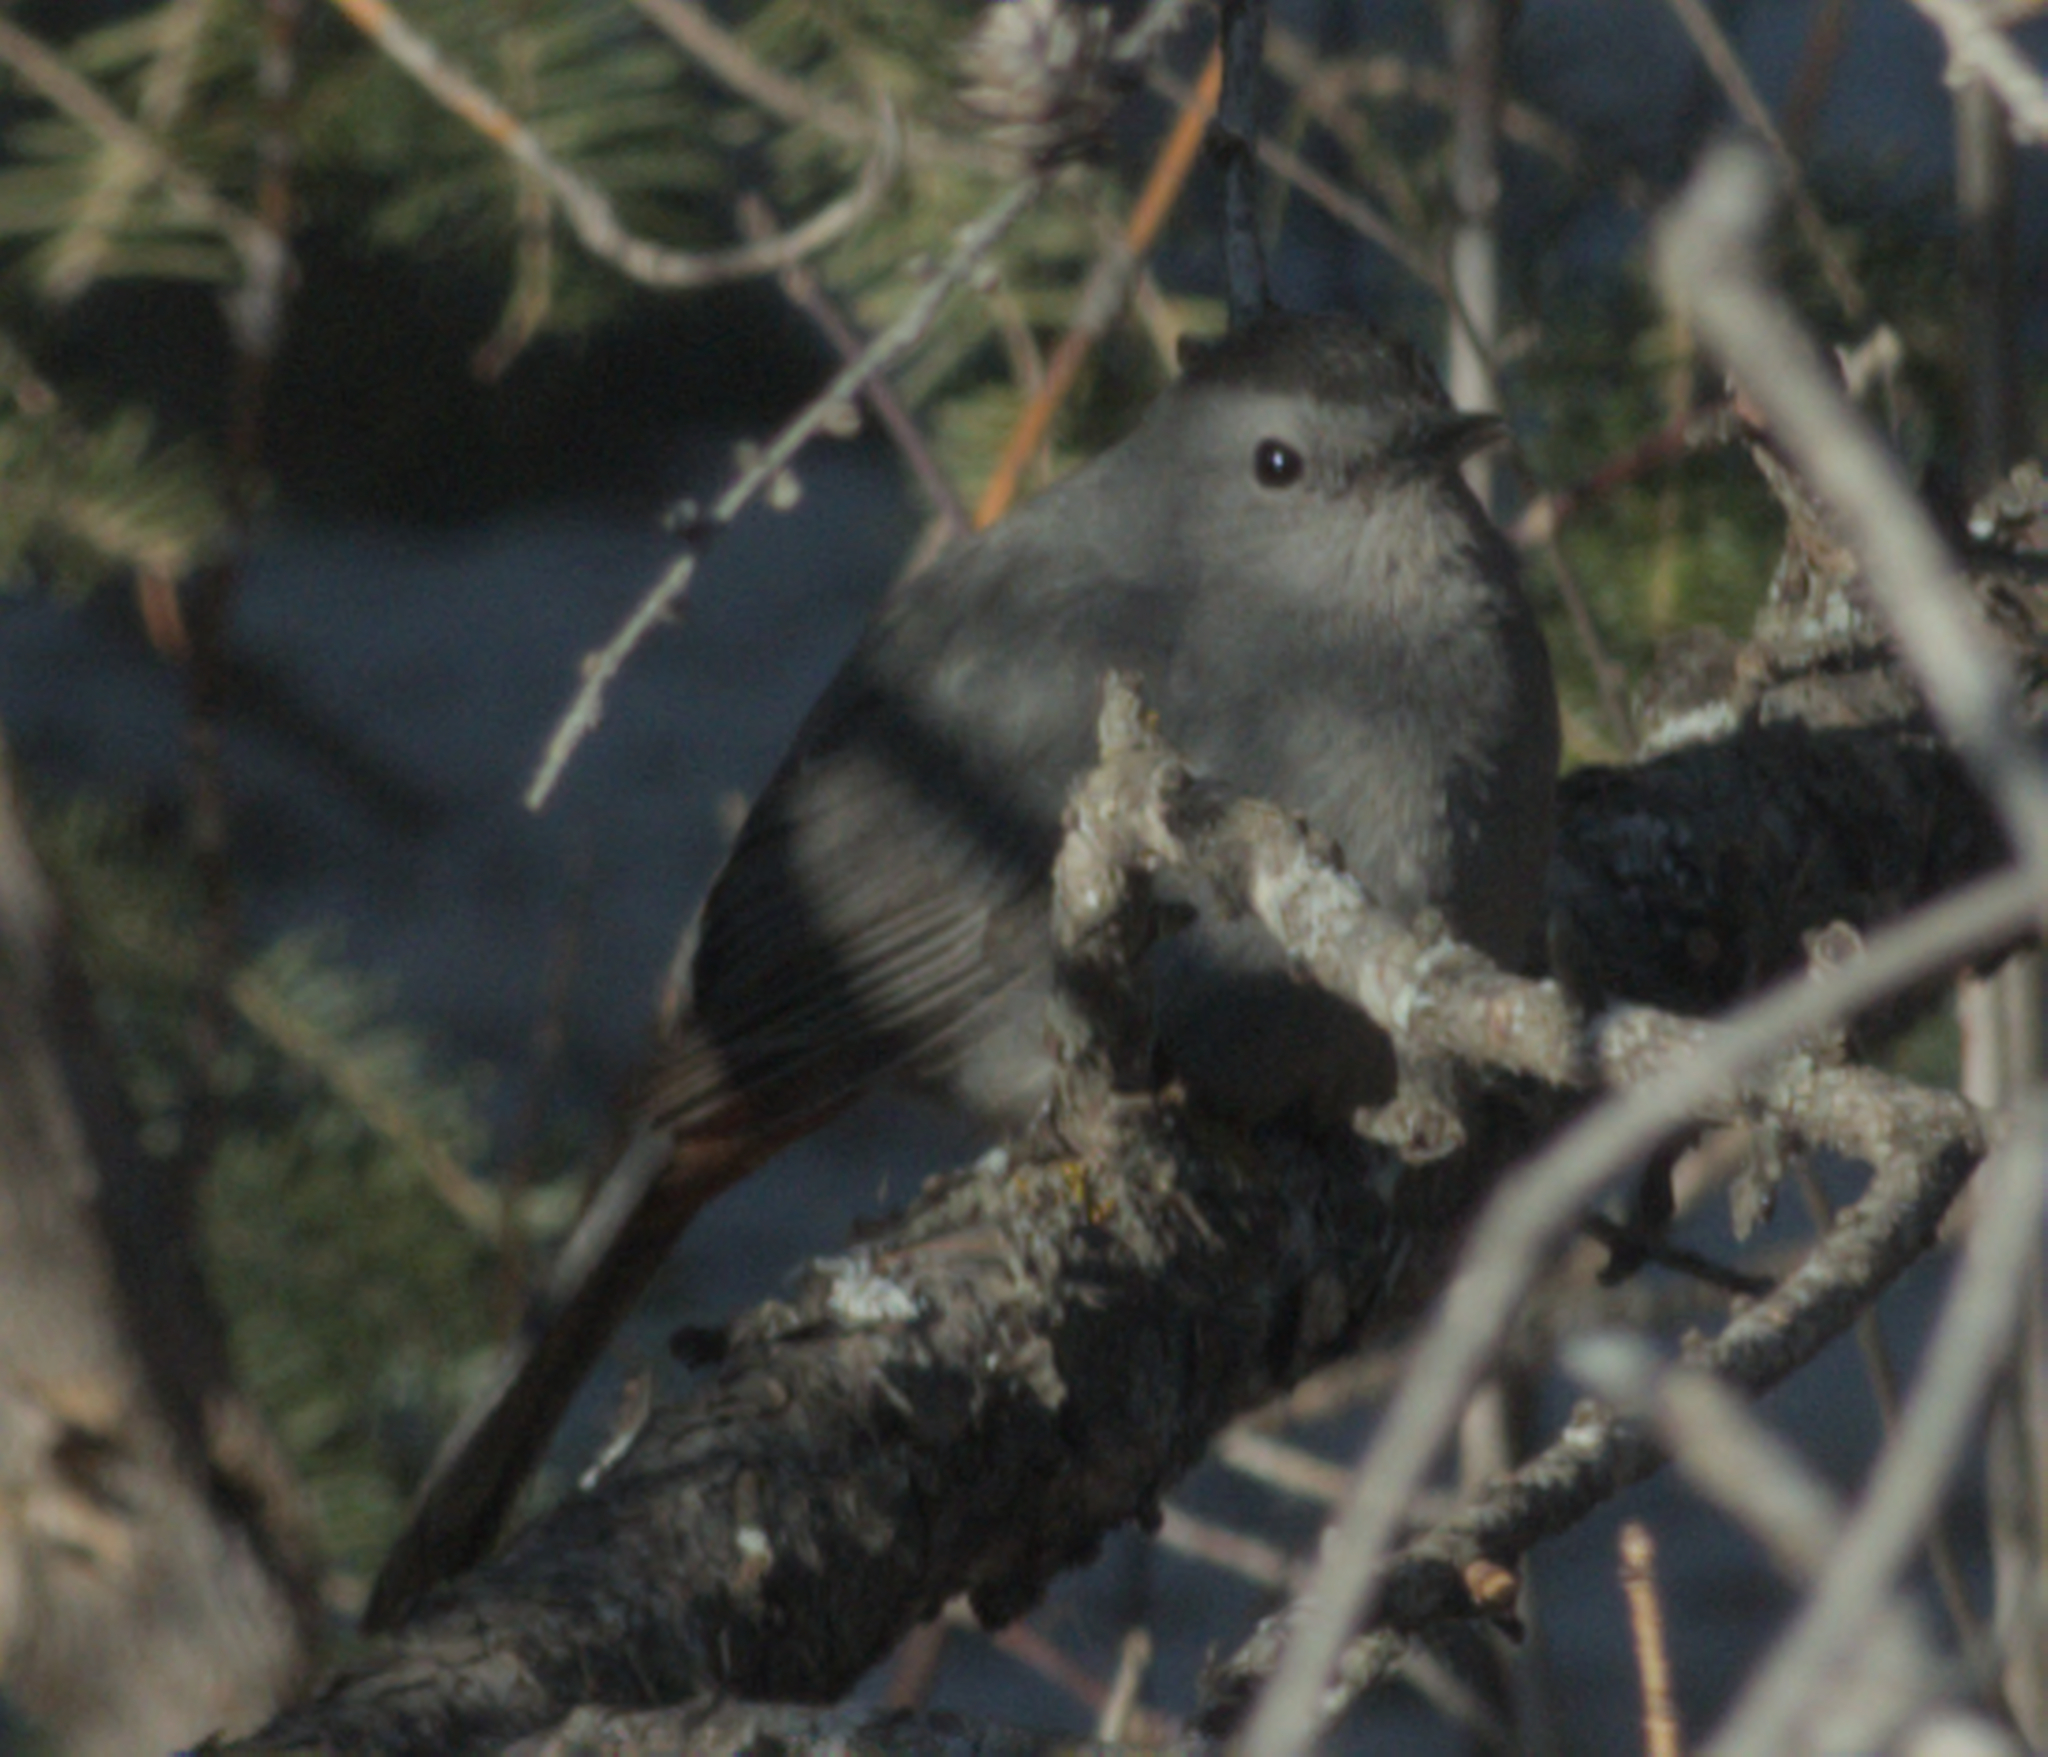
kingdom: Animalia
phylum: Chordata
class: Aves
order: Passeriformes
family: Mimidae
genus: Dumetella
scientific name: Dumetella carolinensis
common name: Gray catbird
